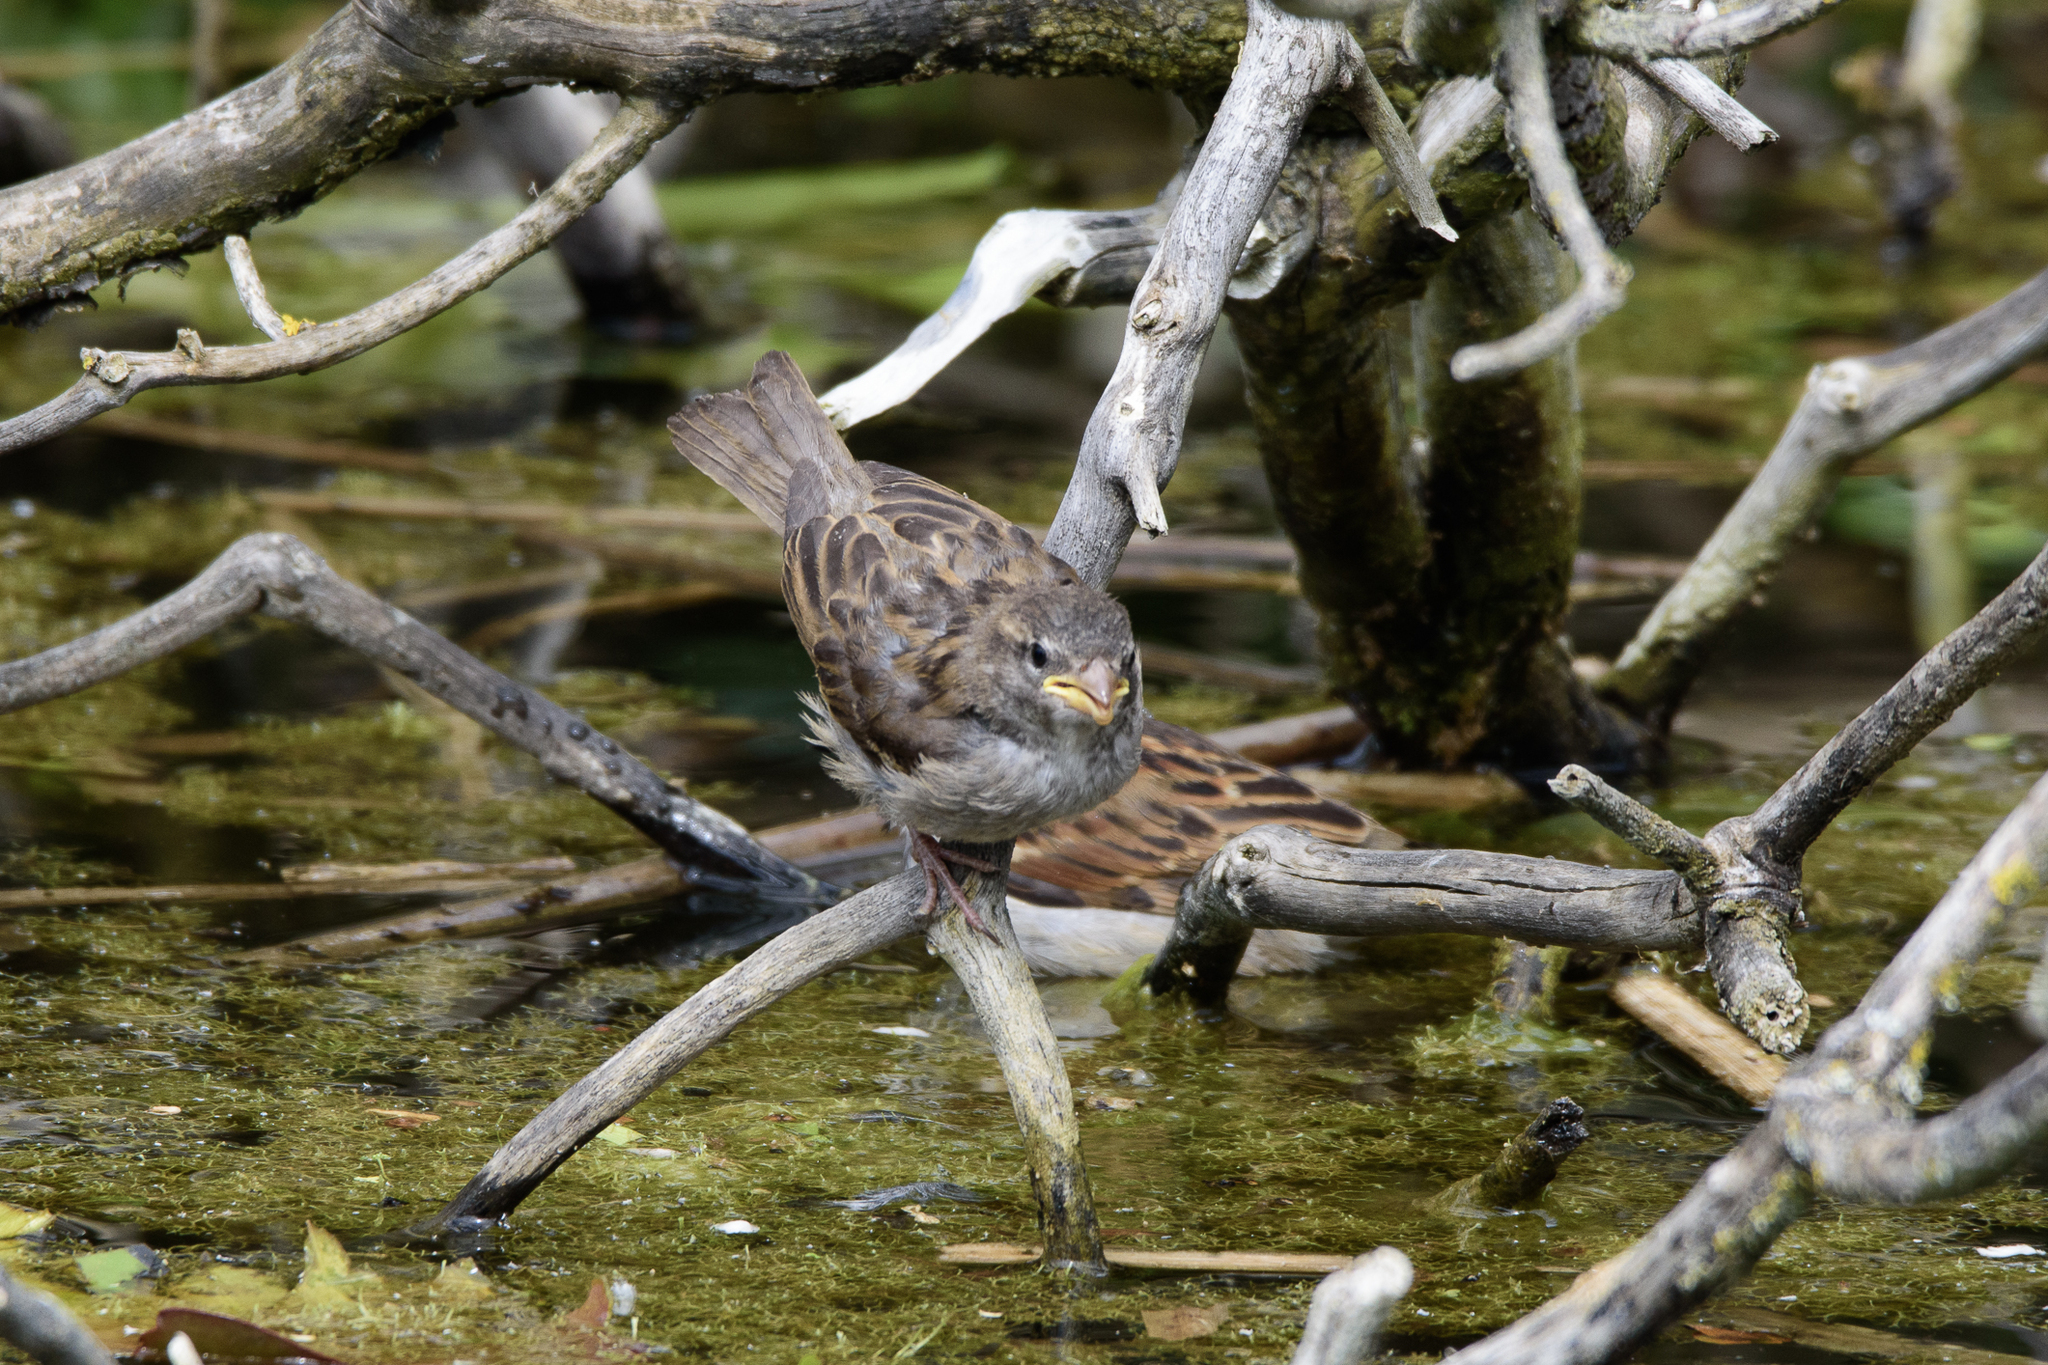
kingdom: Animalia
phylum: Chordata
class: Aves
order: Passeriformes
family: Passeridae
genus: Passer
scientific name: Passer domesticus
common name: House sparrow
